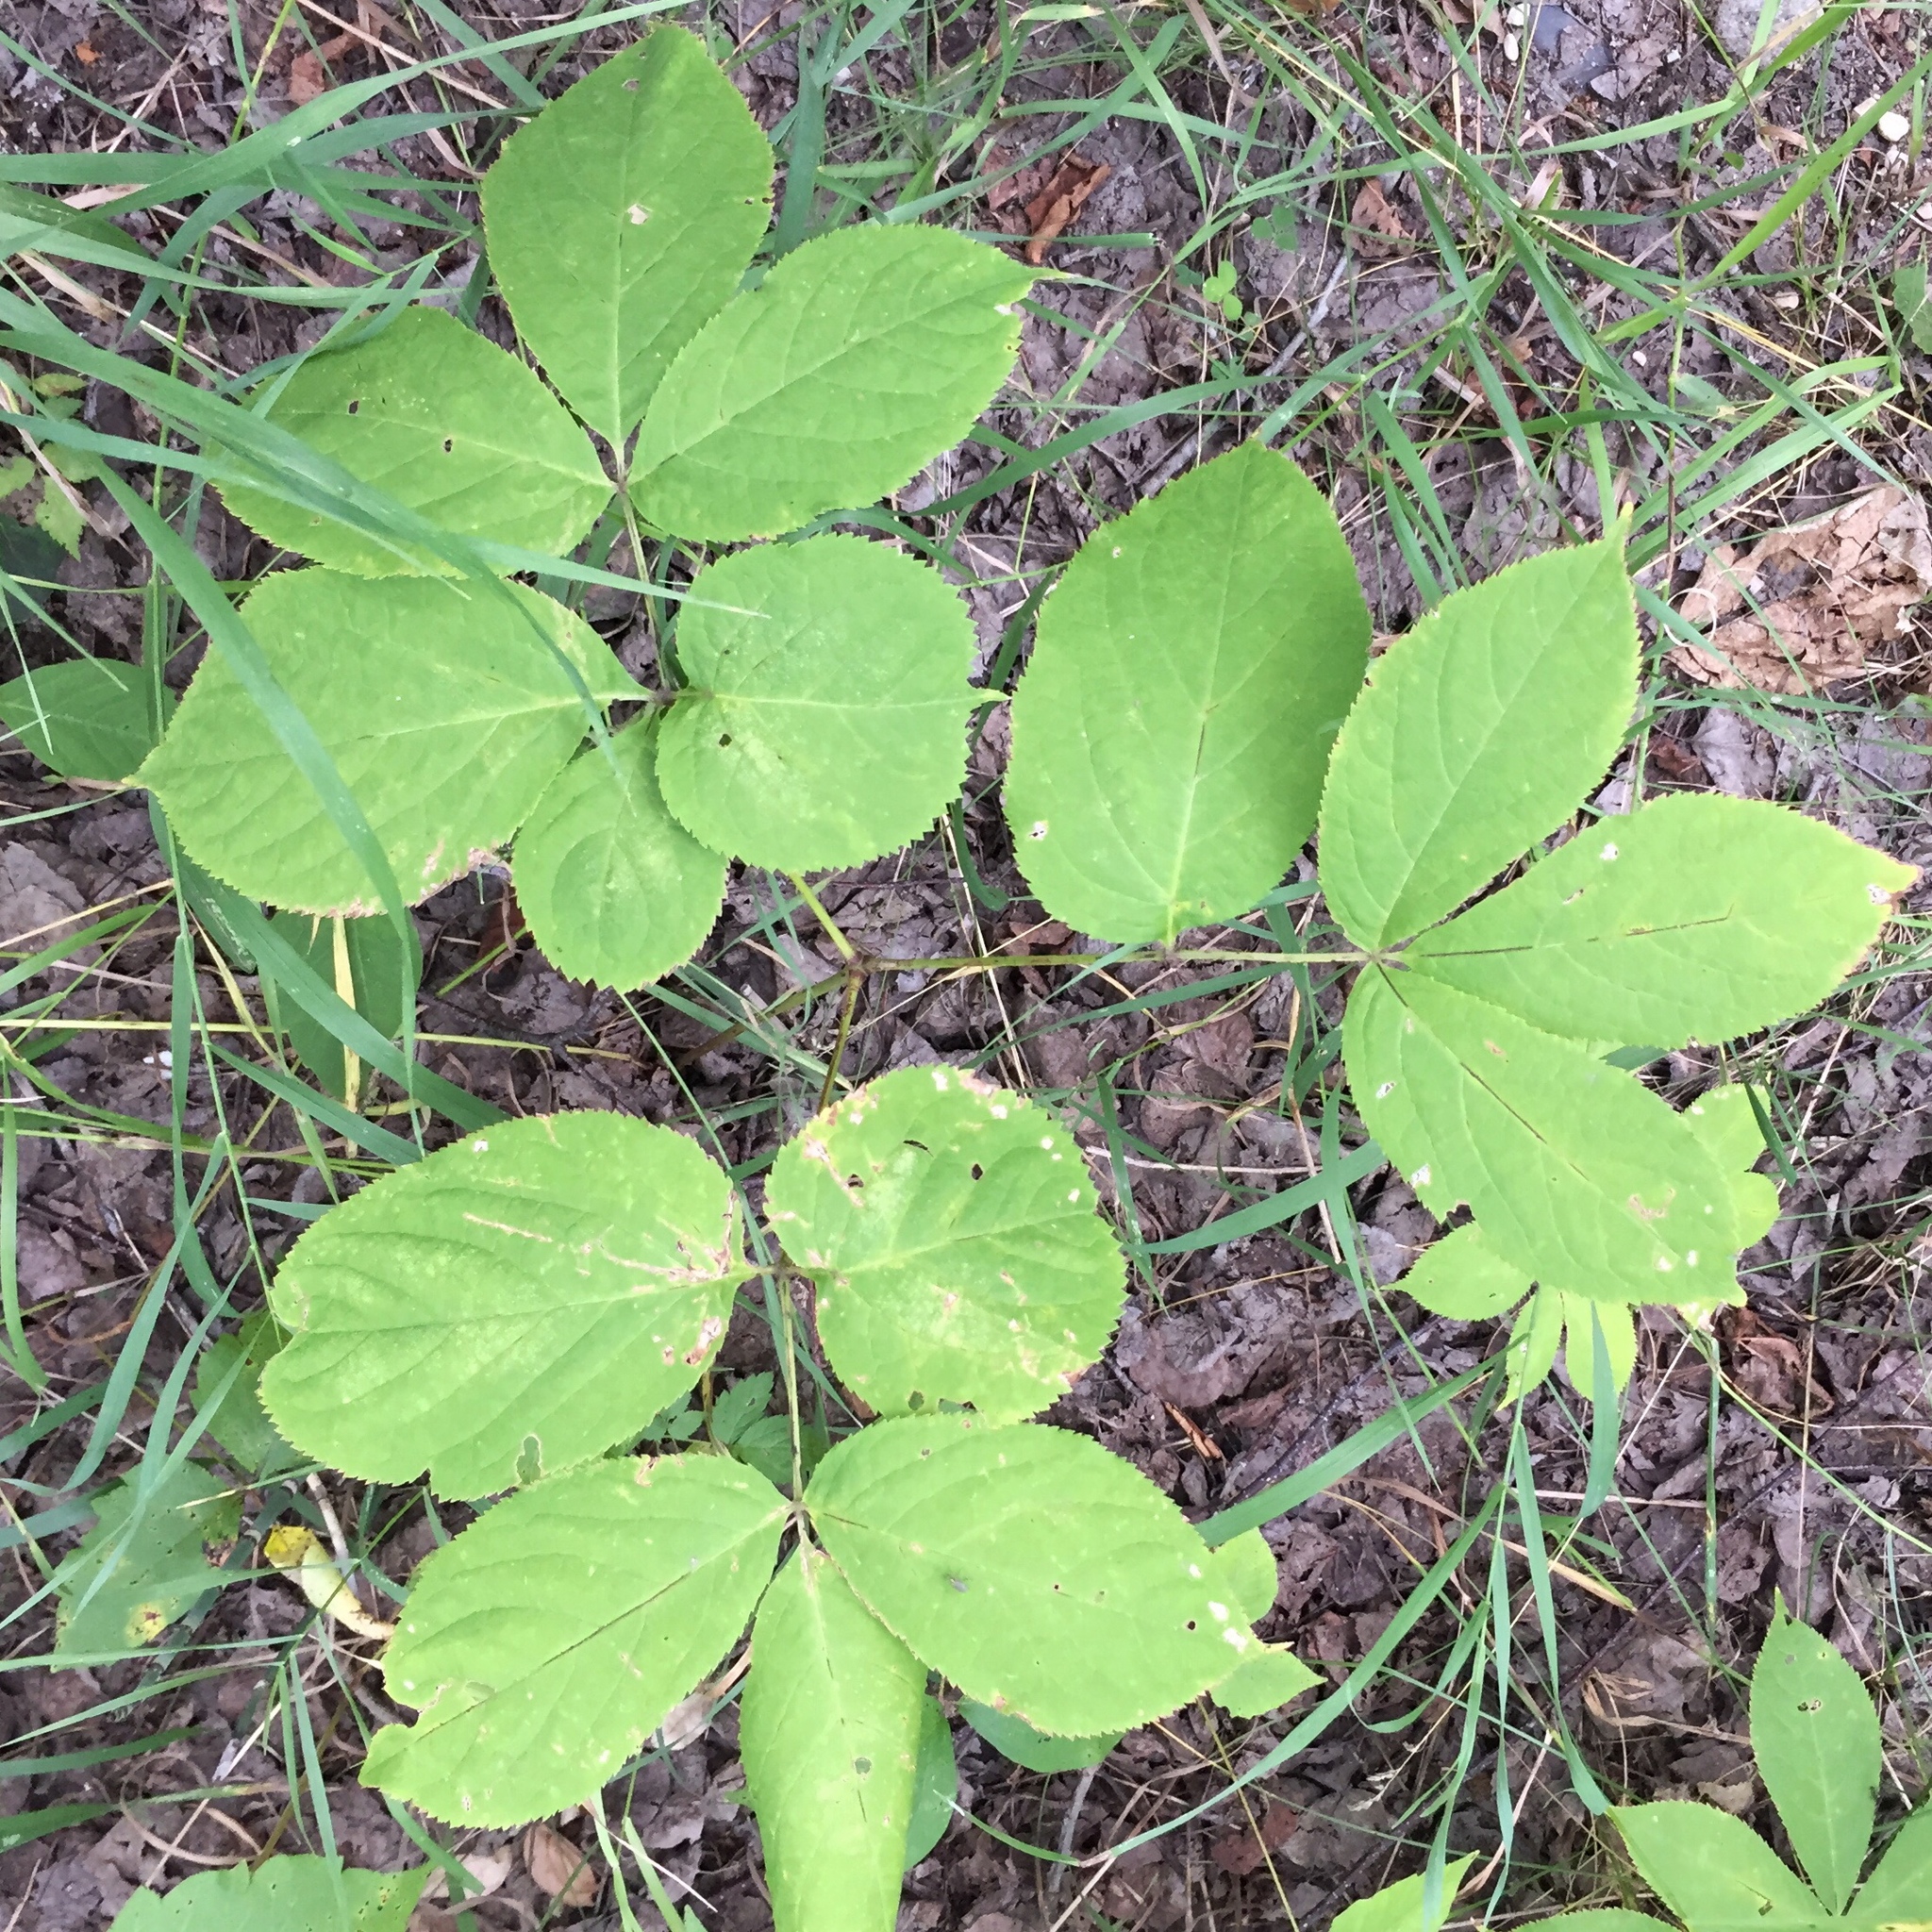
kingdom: Plantae
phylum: Tracheophyta
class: Magnoliopsida
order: Apiales
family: Araliaceae
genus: Aralia
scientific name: Aralia nudicaulis
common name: Wild sarsaparilla
